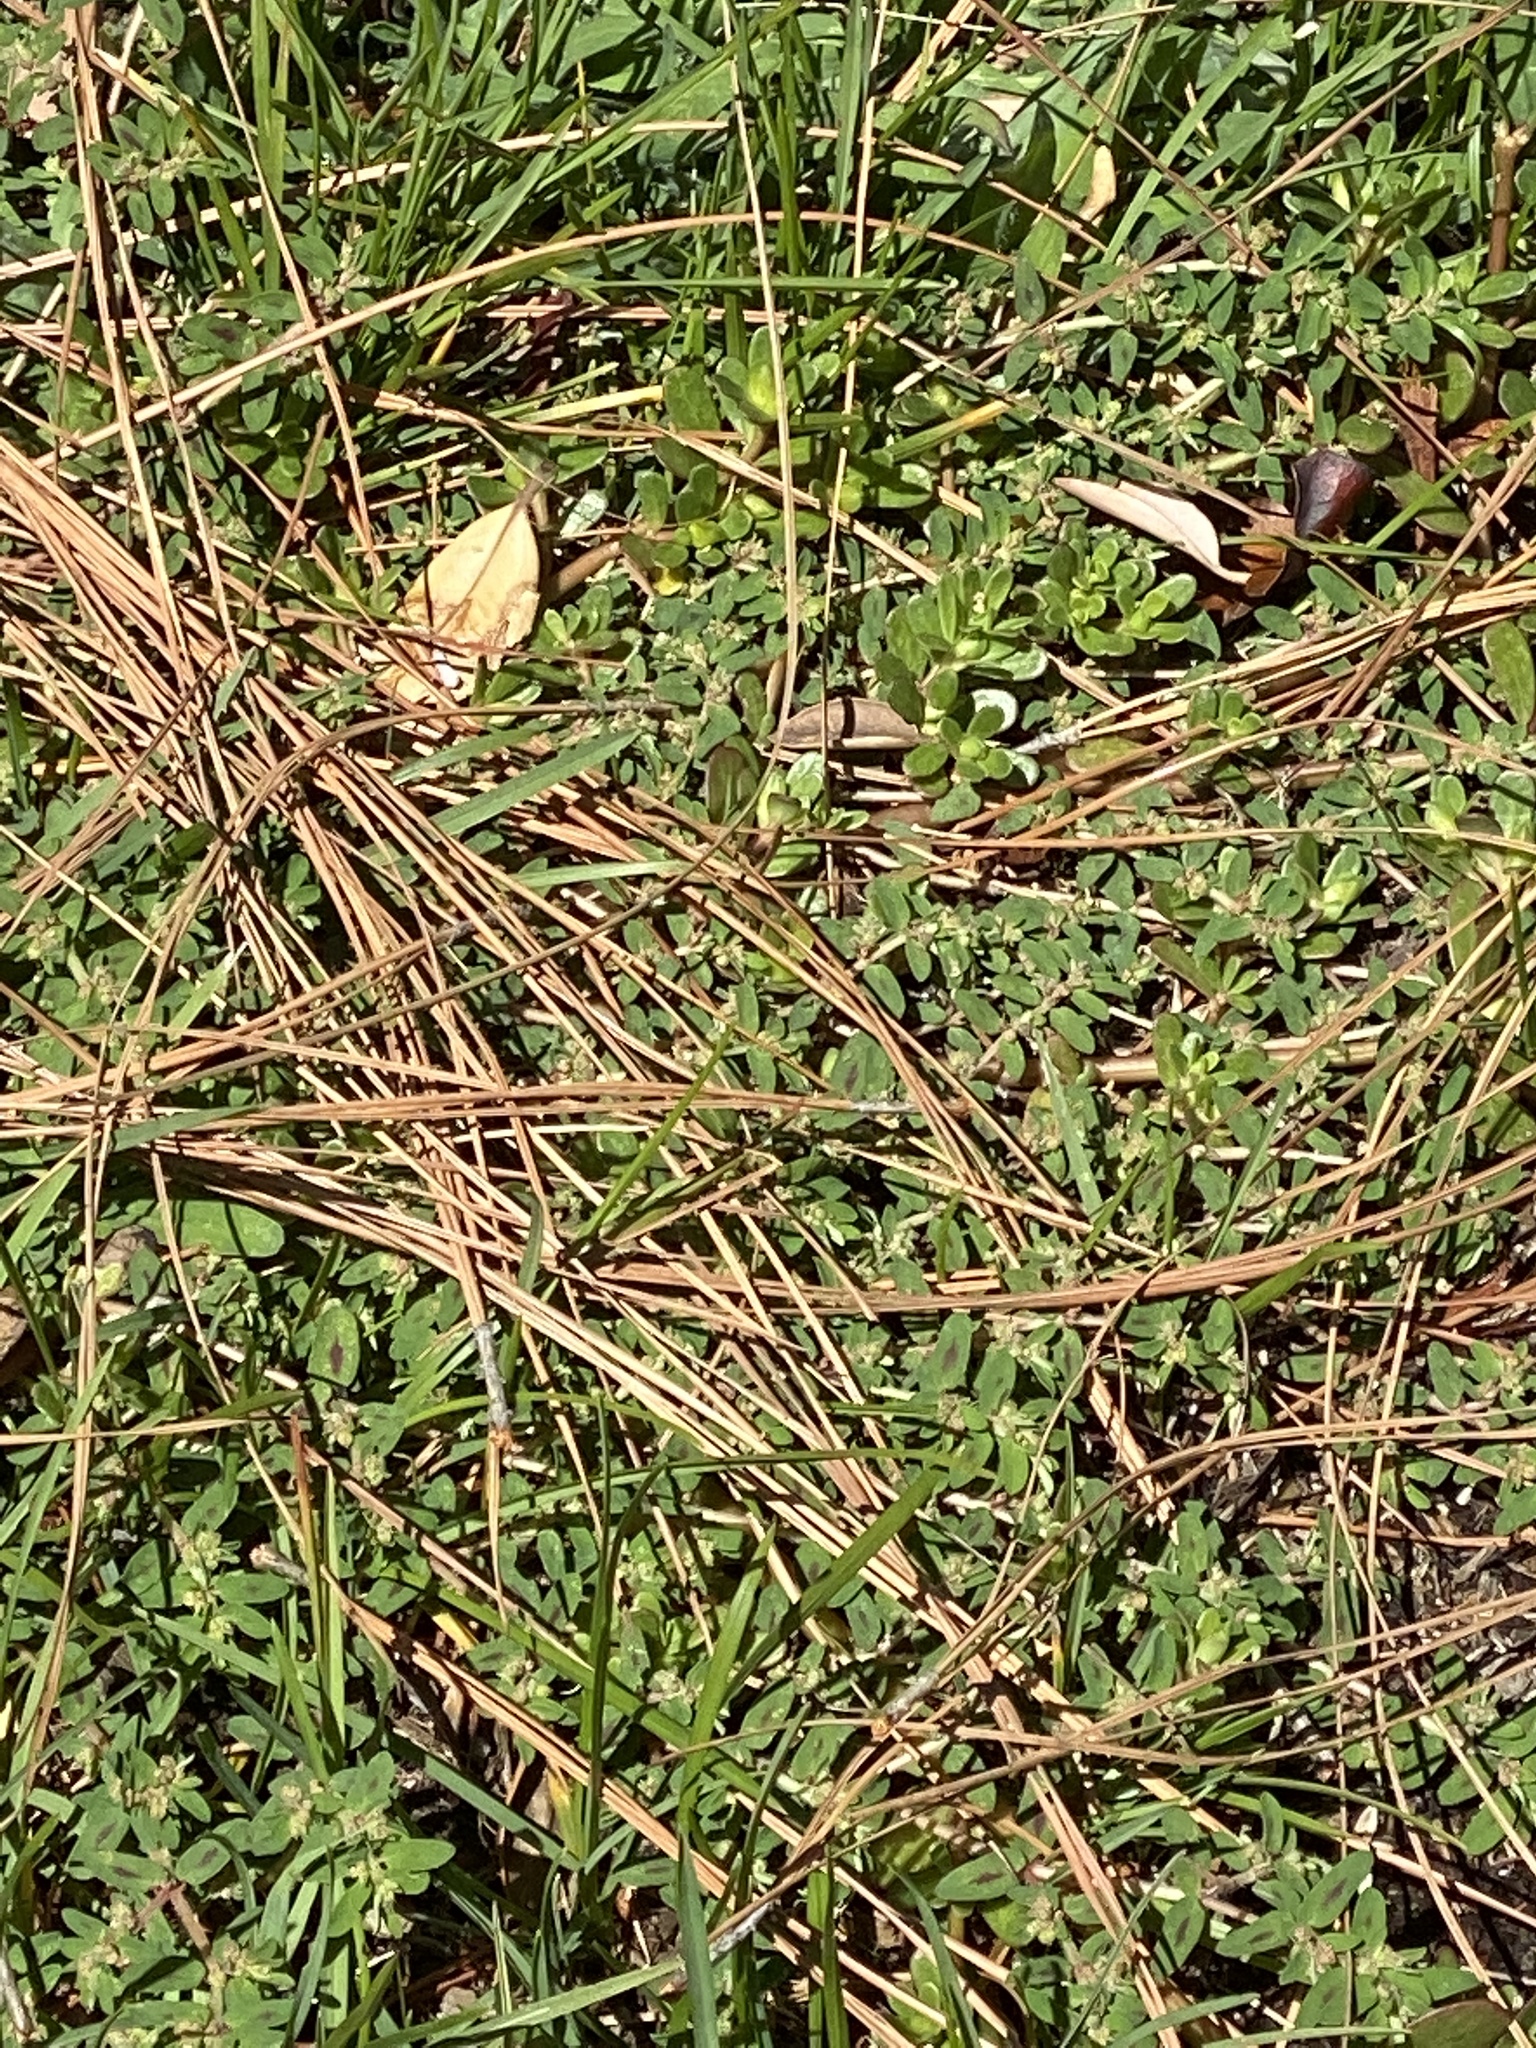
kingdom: Plantae
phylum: Tracheophyta
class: Magnoliopsida
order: Malpighiales
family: Euphorbiaceae
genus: Euphorbia
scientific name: Euphorbia maculata
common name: Spotted spurge
